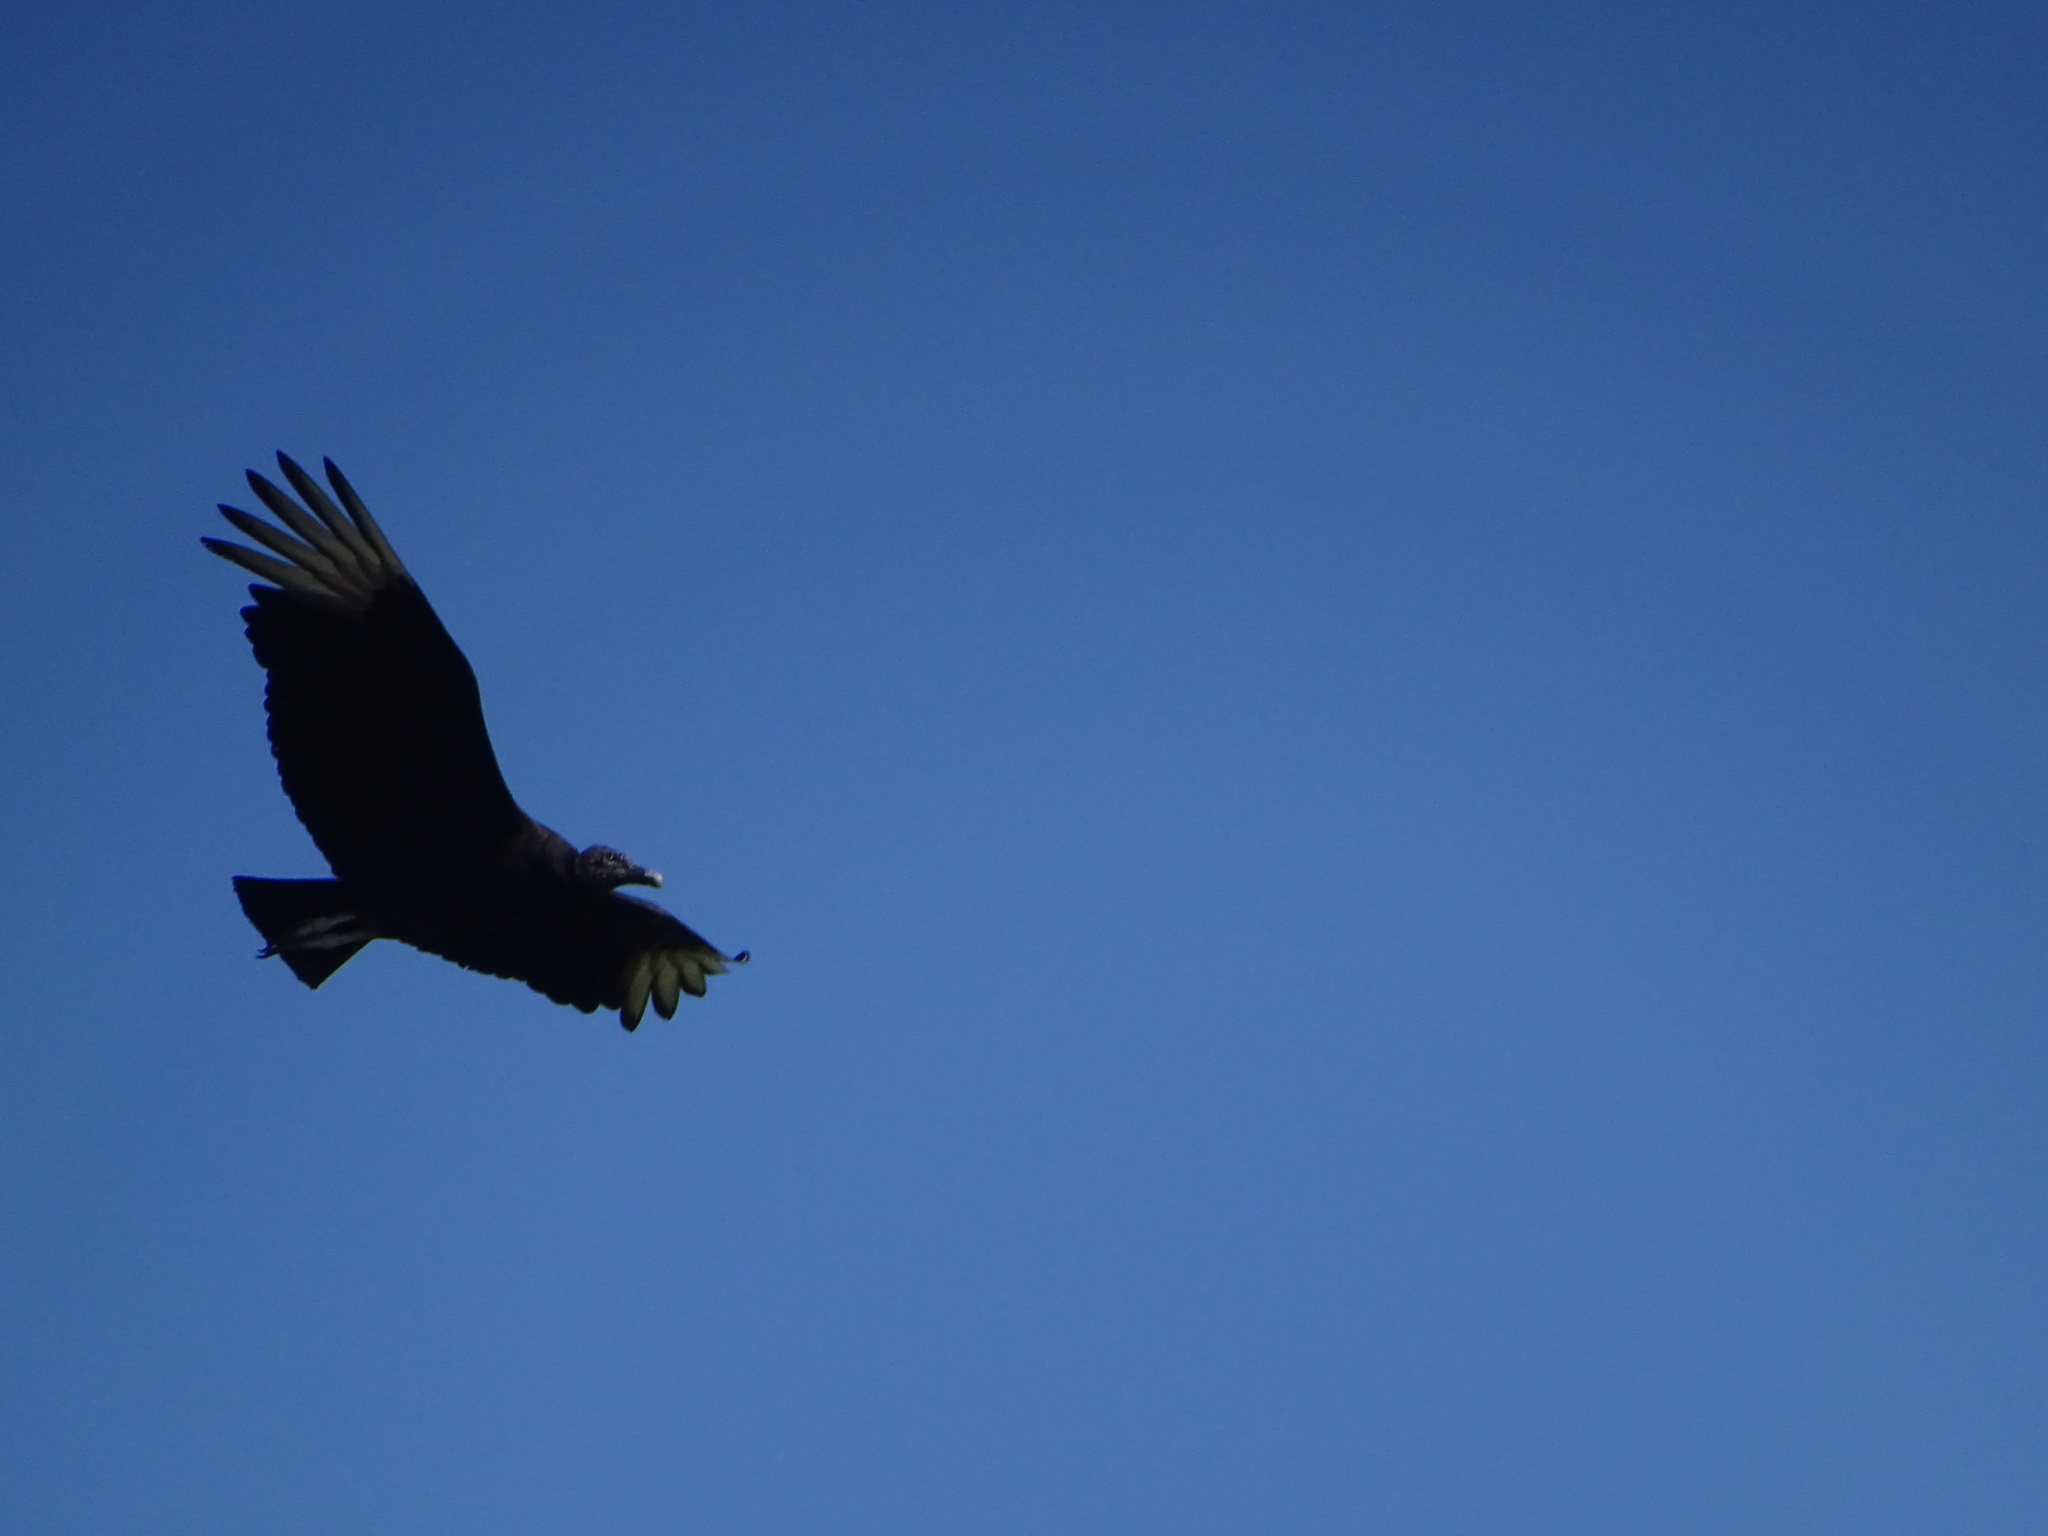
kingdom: Animalia
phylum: Chordata
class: Aves
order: Accipitriformes
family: Cathartidae
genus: Coragyps
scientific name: Coragyps atratus
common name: Black vulture
